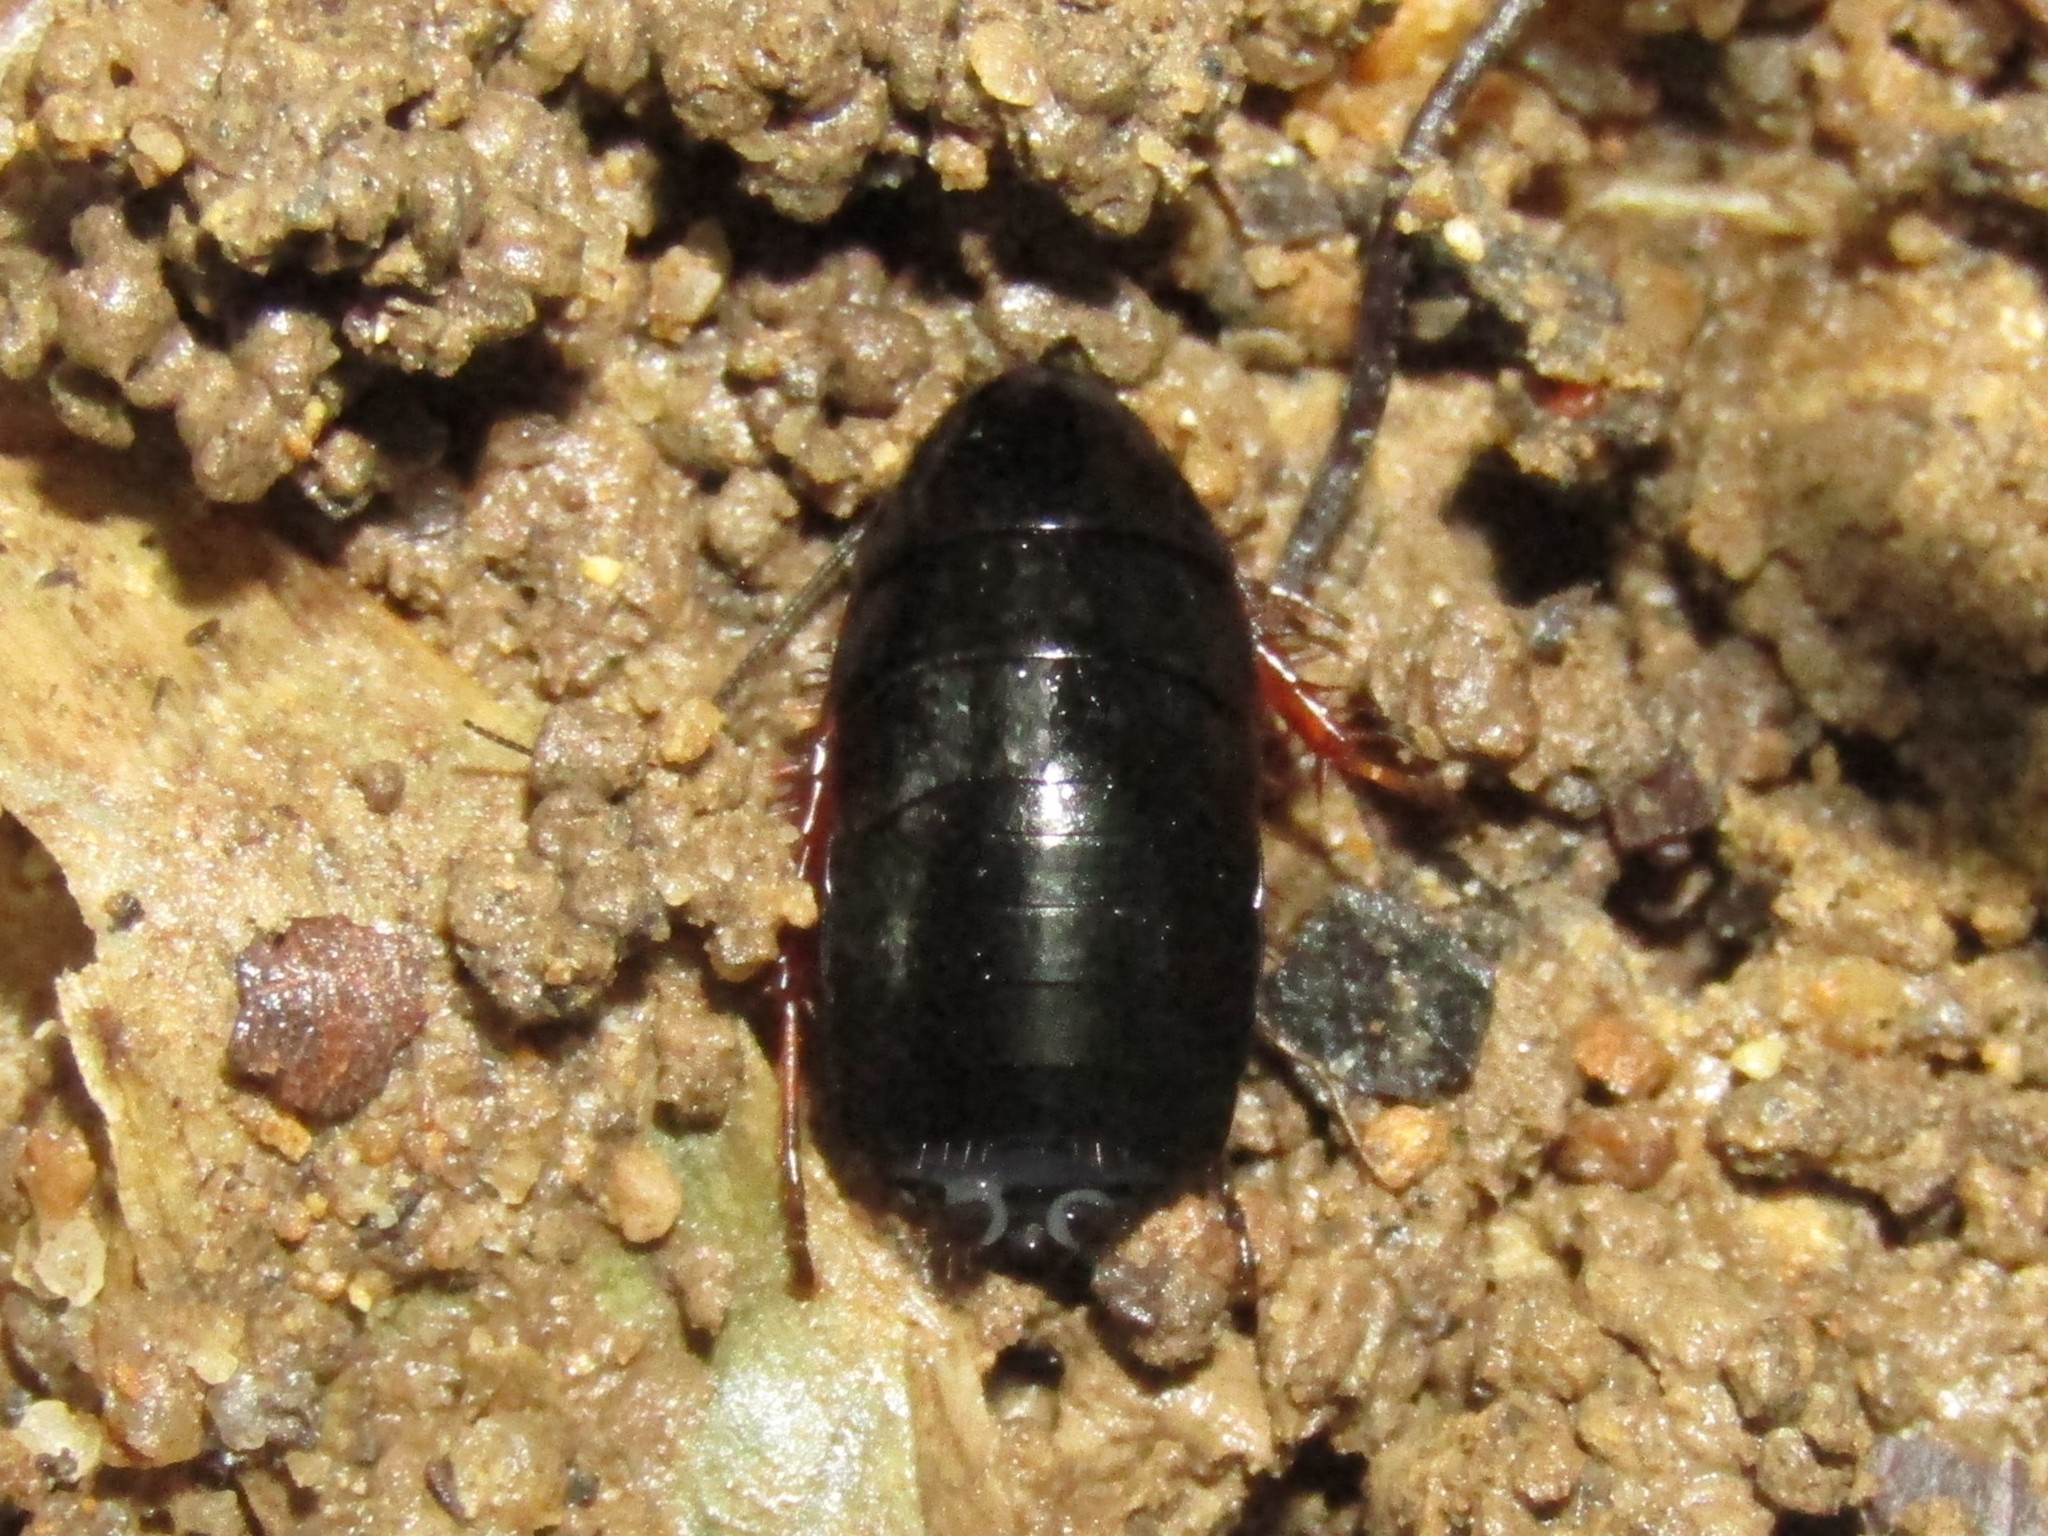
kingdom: Animalia
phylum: Arthropoda
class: Insecta
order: Blattodea
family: Ectobiidae
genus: Ischnoptera
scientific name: Ischnoptera deropeltiformis
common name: Dark wood cockroach
